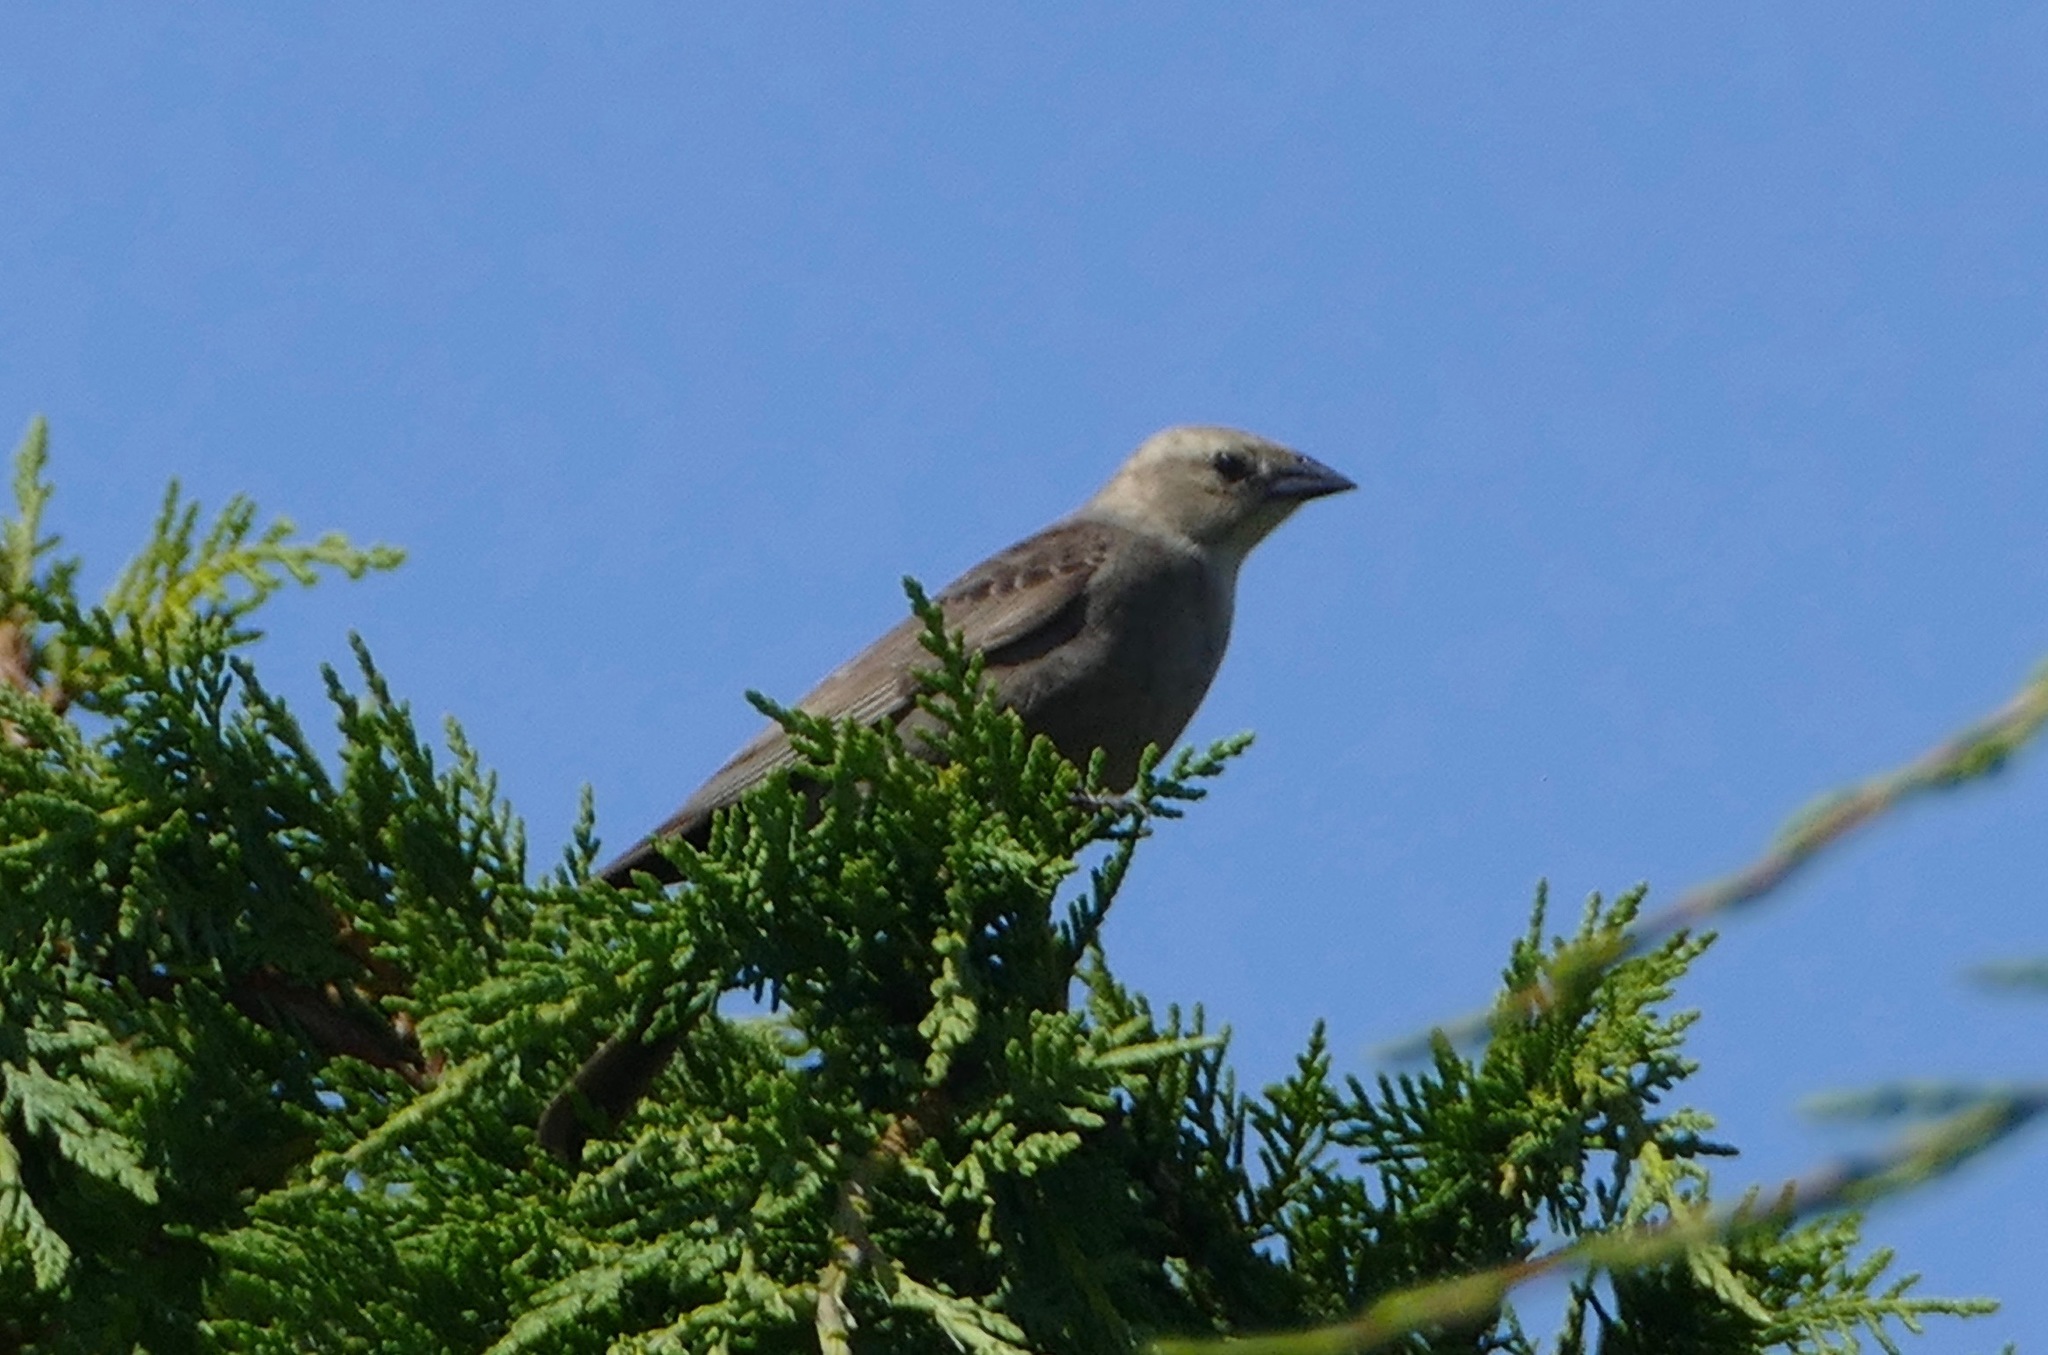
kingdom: Animalia
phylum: Chordata
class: Aves
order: Passeriformes
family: Icteridae
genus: Molothrus
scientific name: Molothrus ater
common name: Brown-headed cowbird
